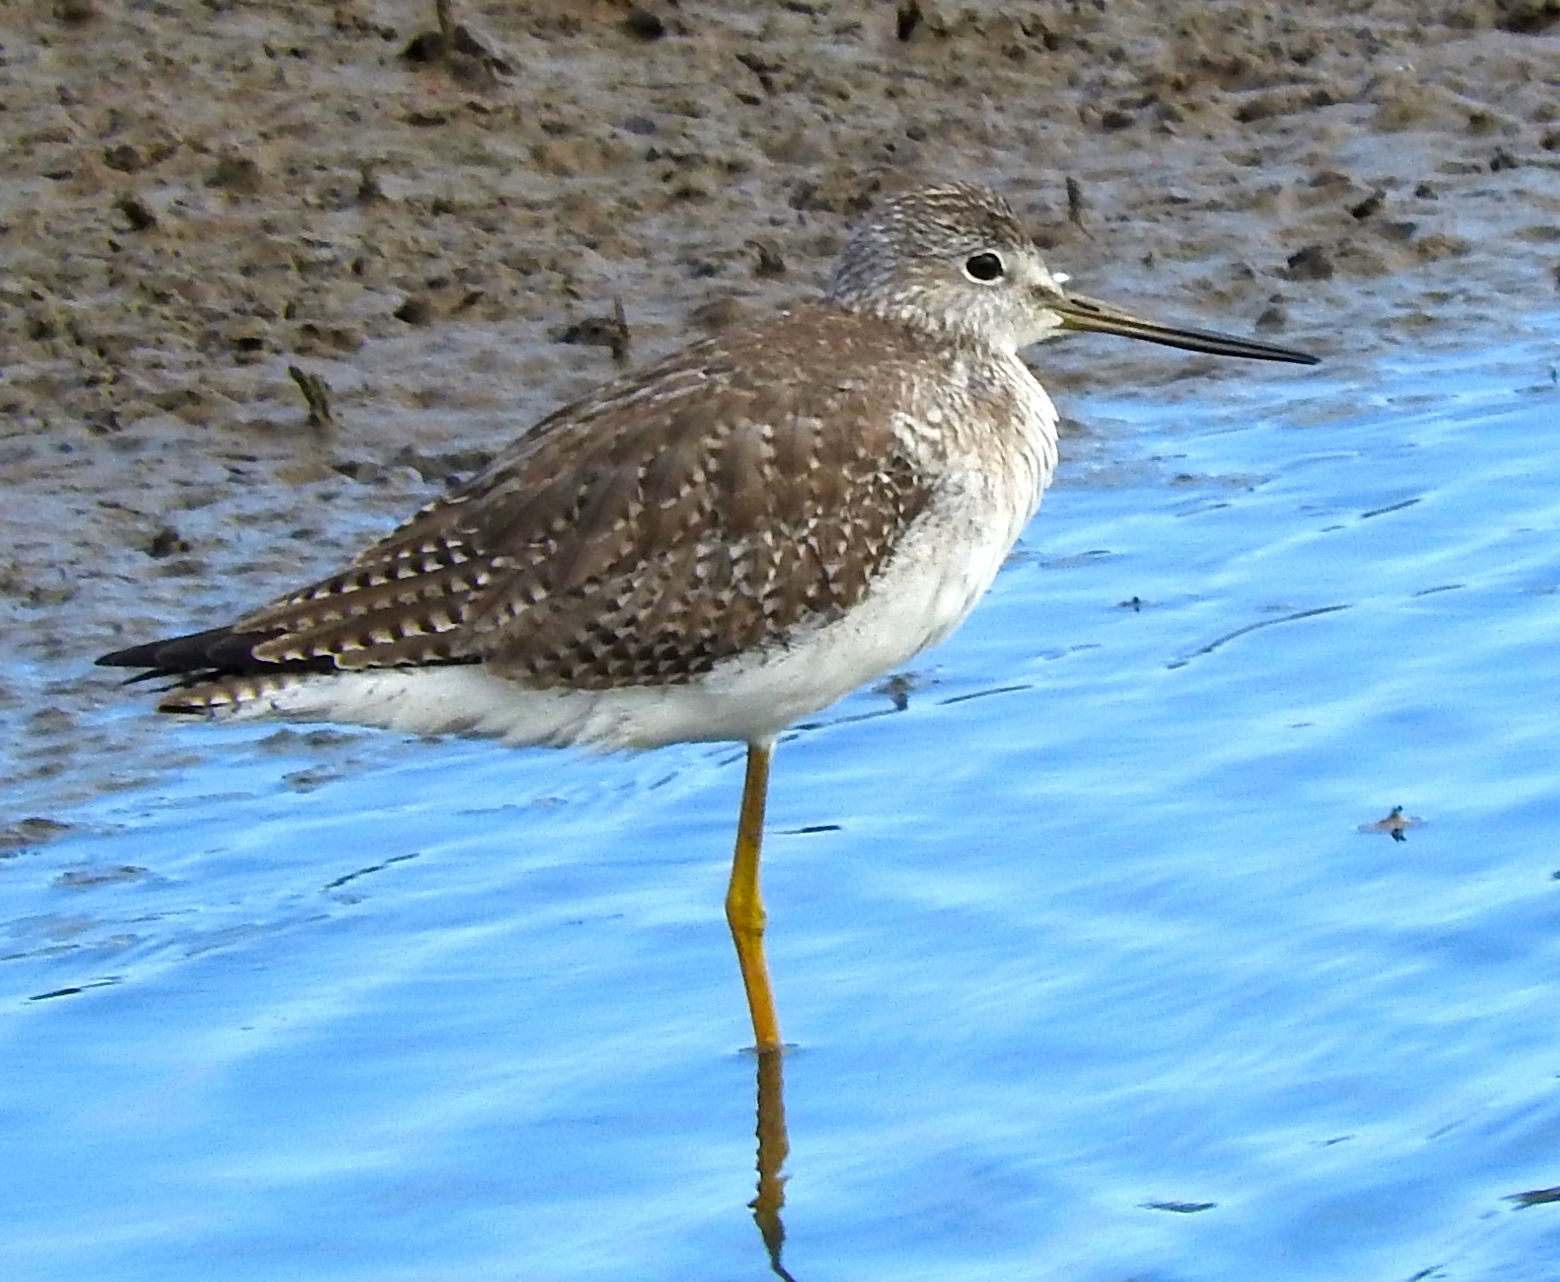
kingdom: Animalia
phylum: Chordata
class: Aves
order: Charadriiformes
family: Scolopacidae
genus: Tringa
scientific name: Tringa melanoleuca
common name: Greater yellowlegs
